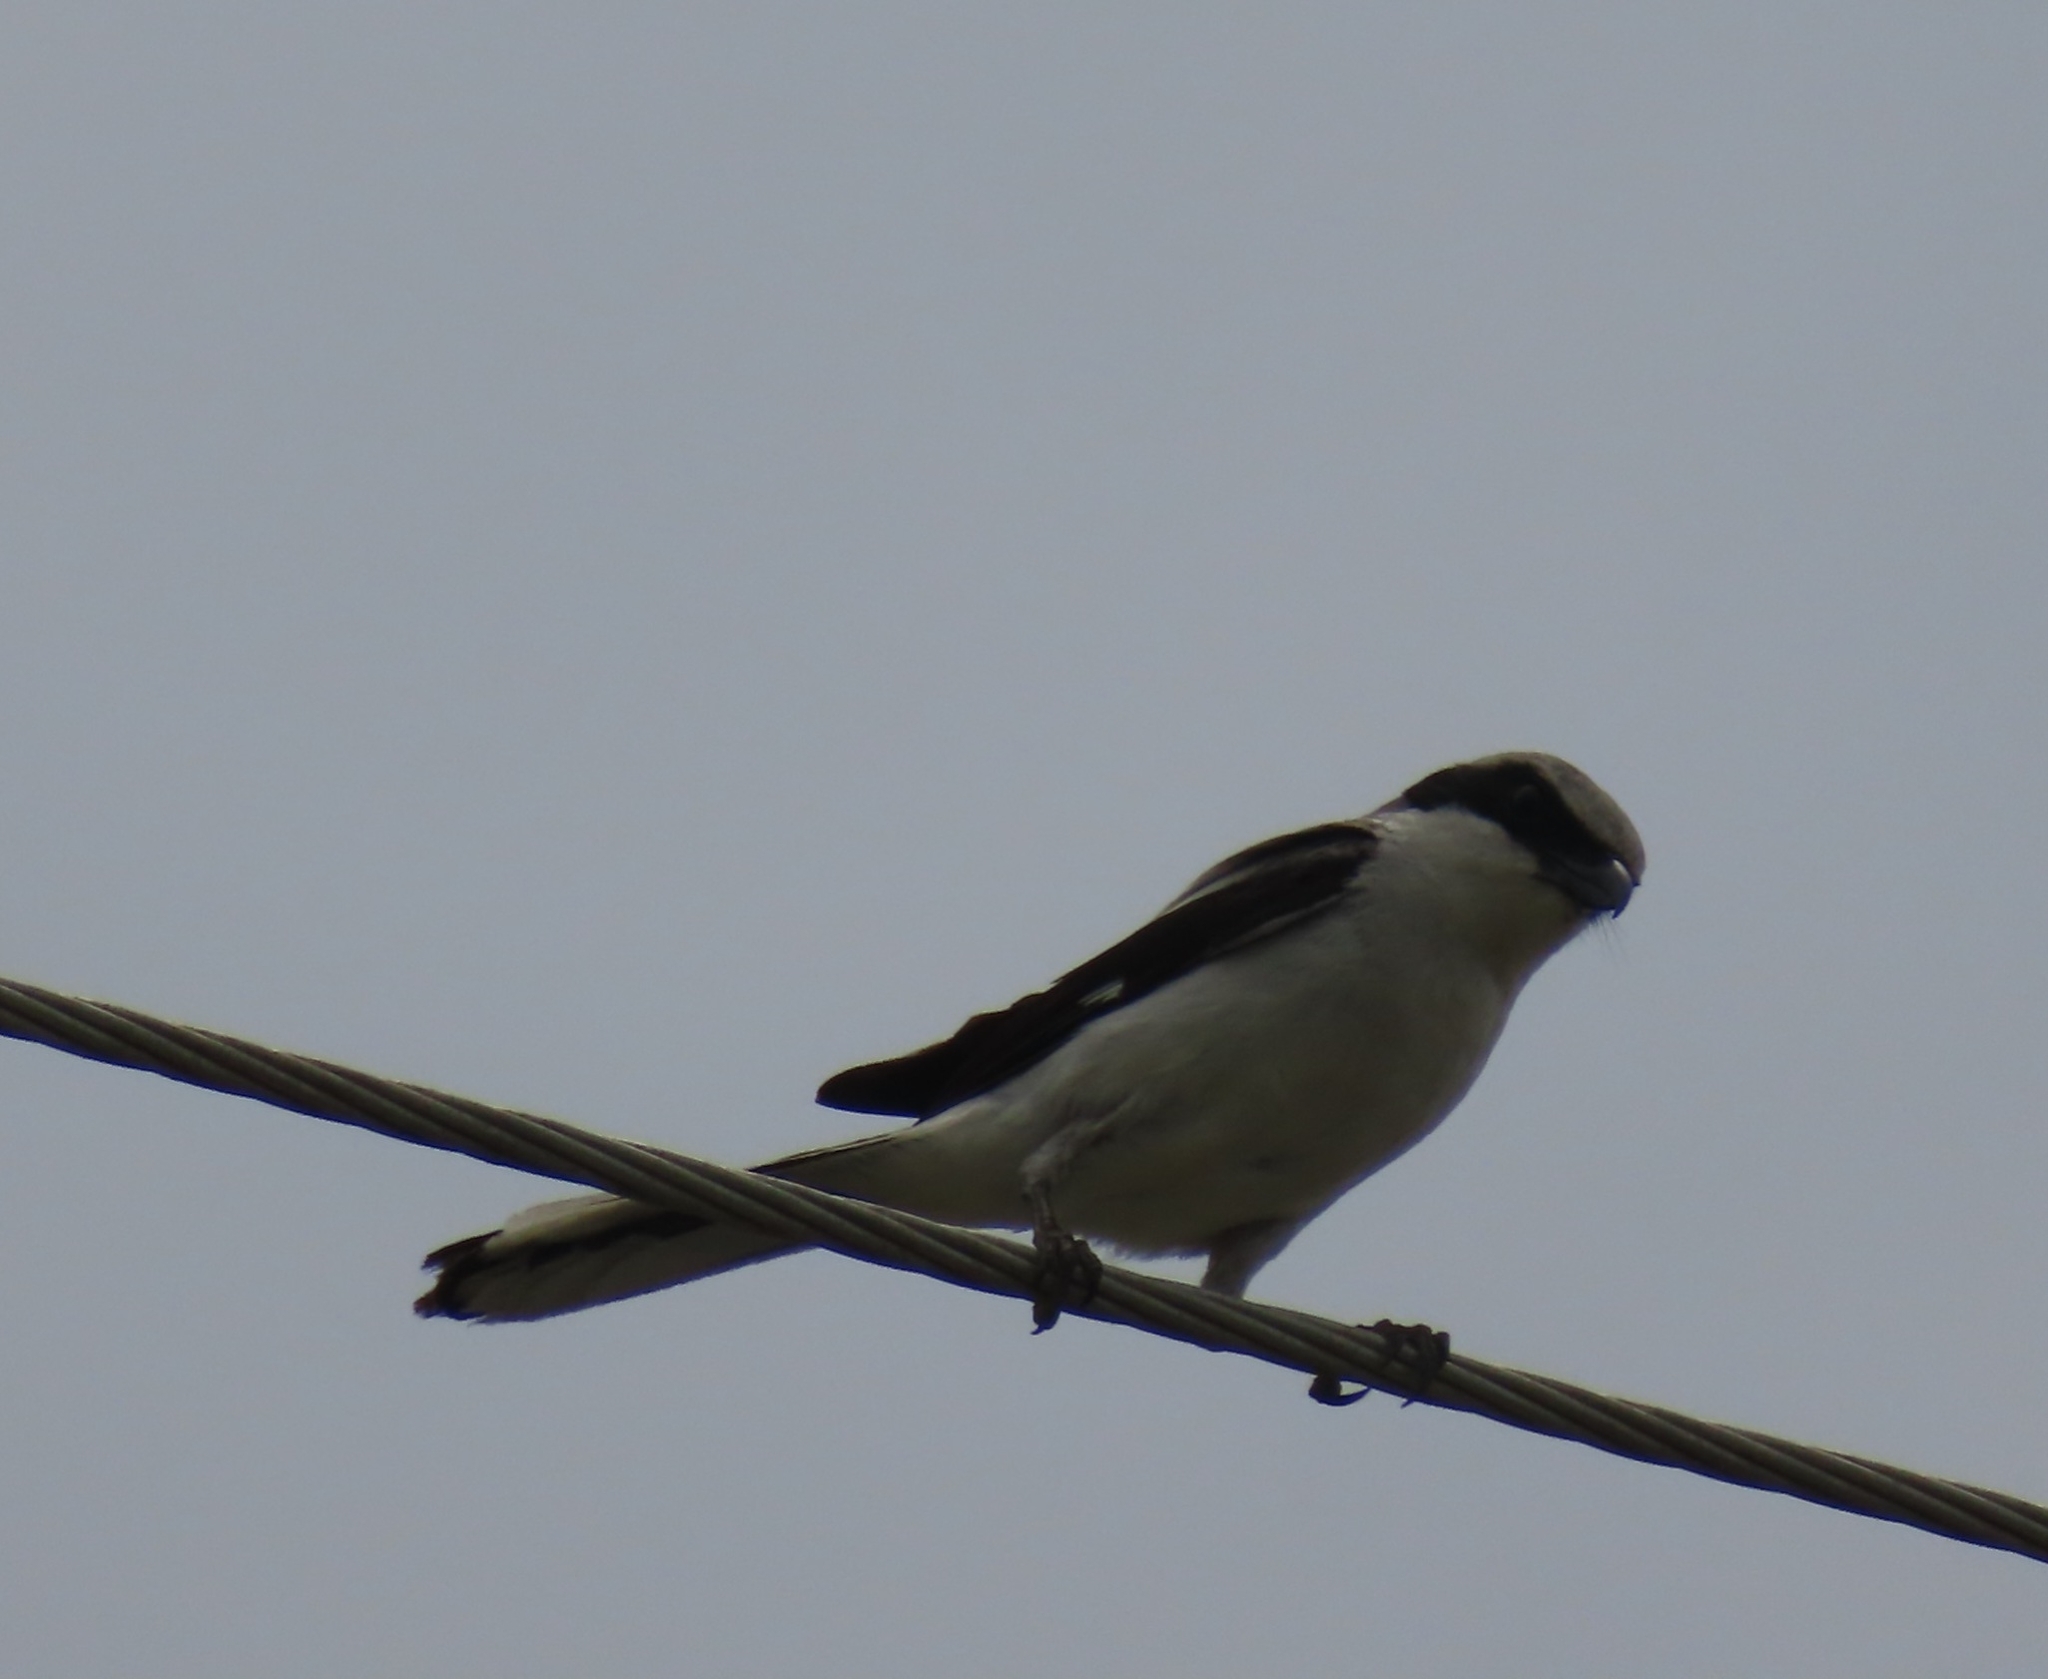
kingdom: Animalia
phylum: Chordata
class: Aves
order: Passeriformes
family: Laniidae
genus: Lanius
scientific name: Lanius ludovicianus
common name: Loggerhead shrike
